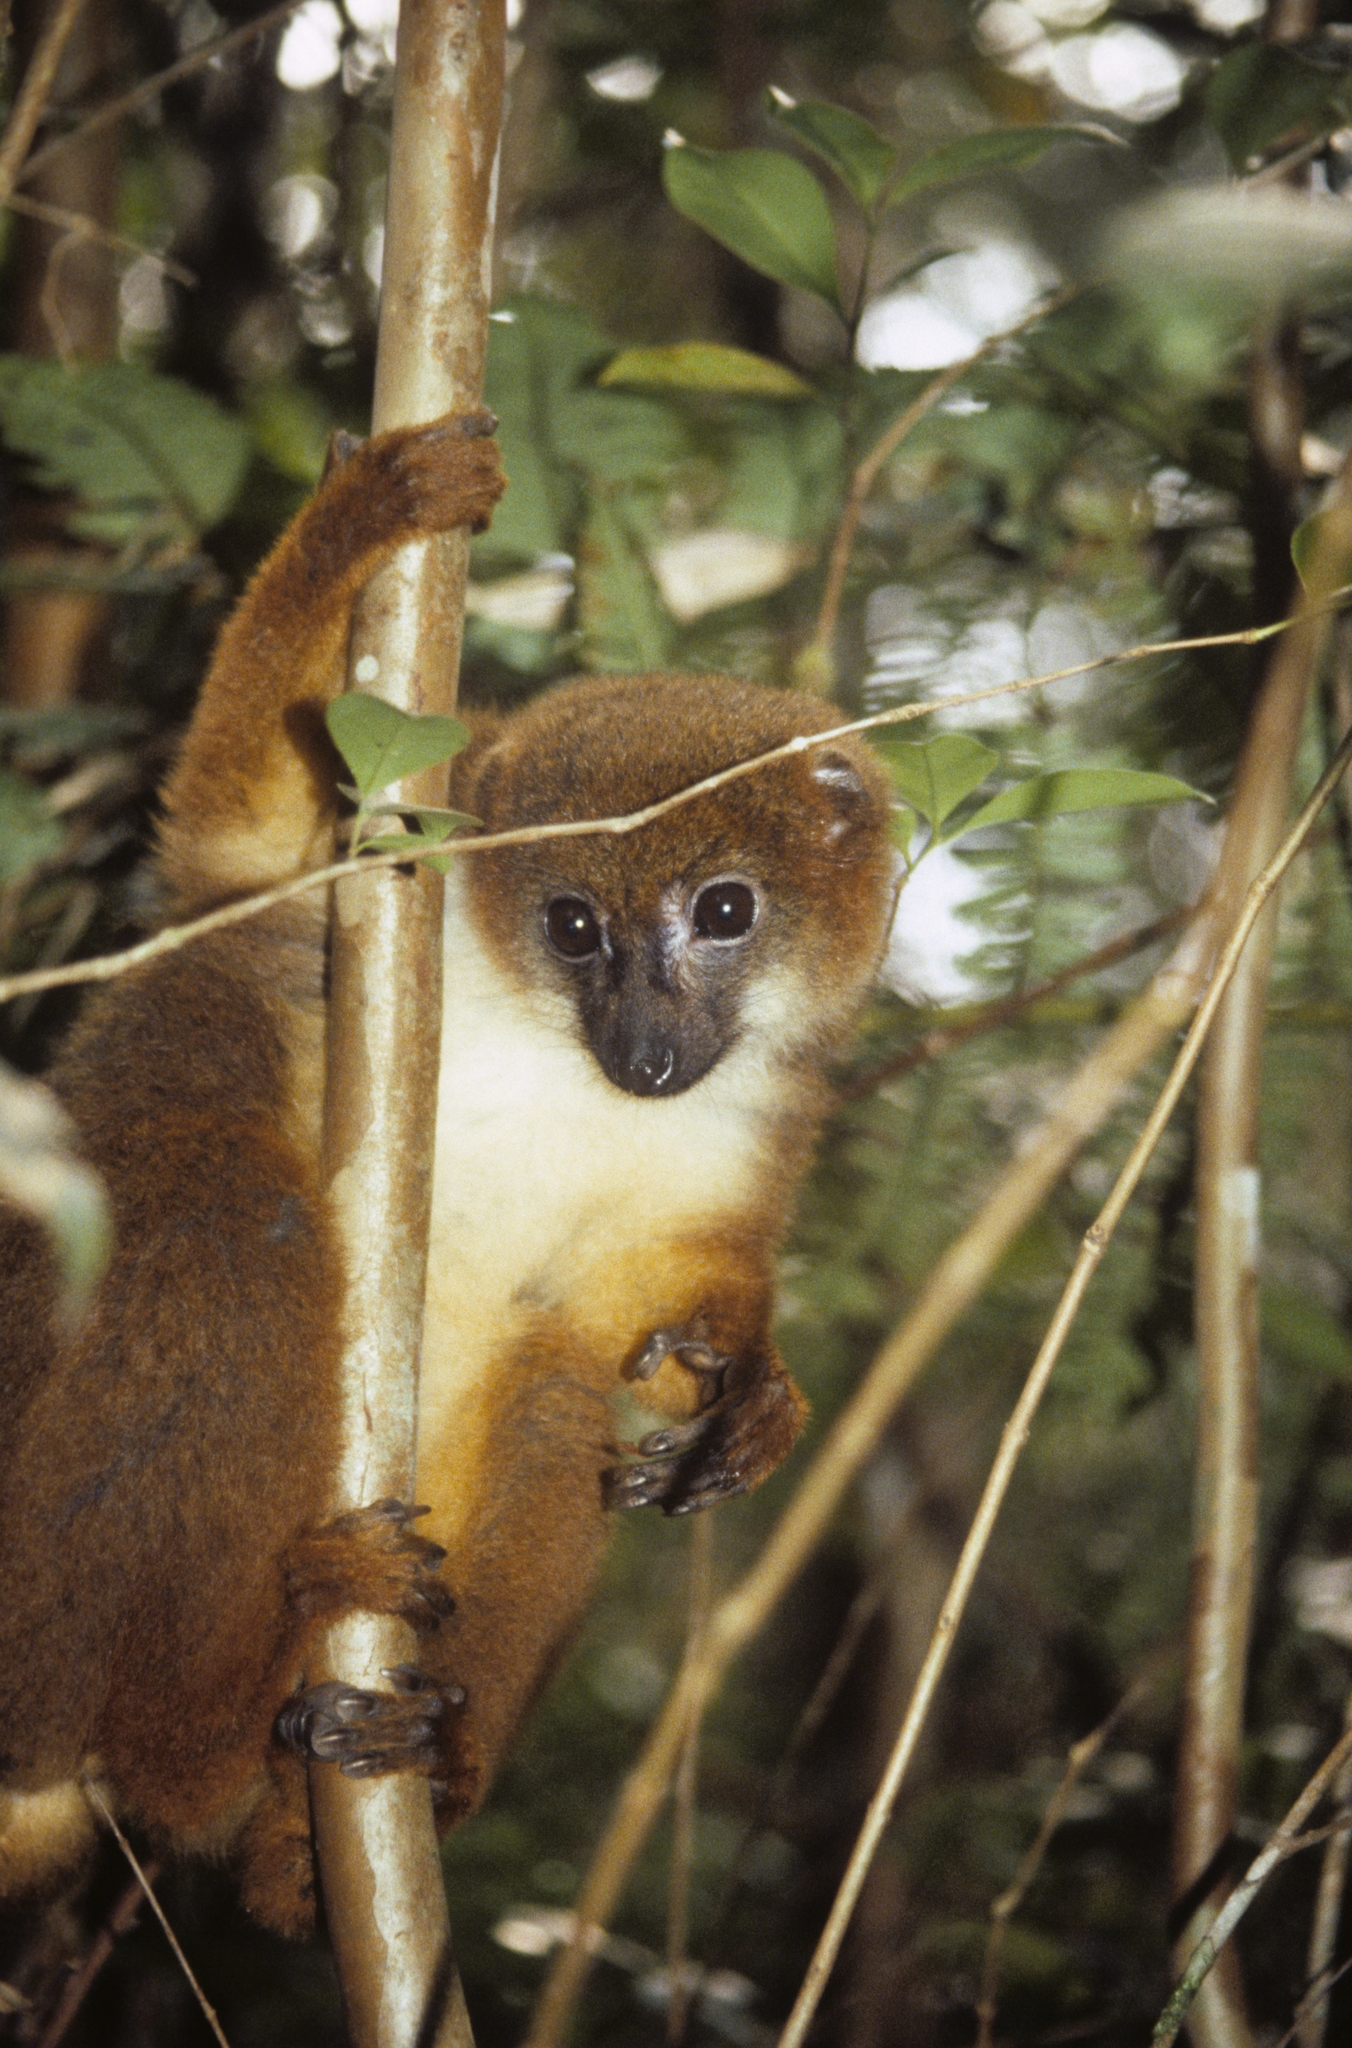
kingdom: Animalia
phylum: Chordata
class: Mammalia
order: Primates
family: Lemuridae
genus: Eulemur
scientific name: Eulemur rubriventer
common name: Red-bellied lemur
